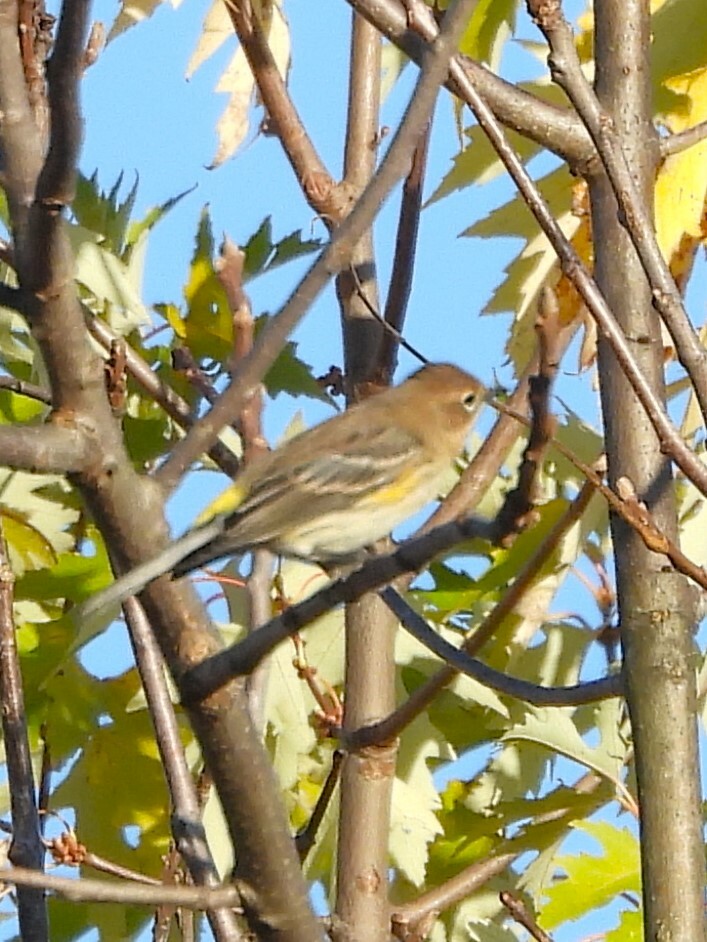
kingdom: Animalia
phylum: Chordata
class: Aves
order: Passeriformes
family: Parulidae
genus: Setophaga
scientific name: Setophaga coronata
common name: Myrtle warbler
